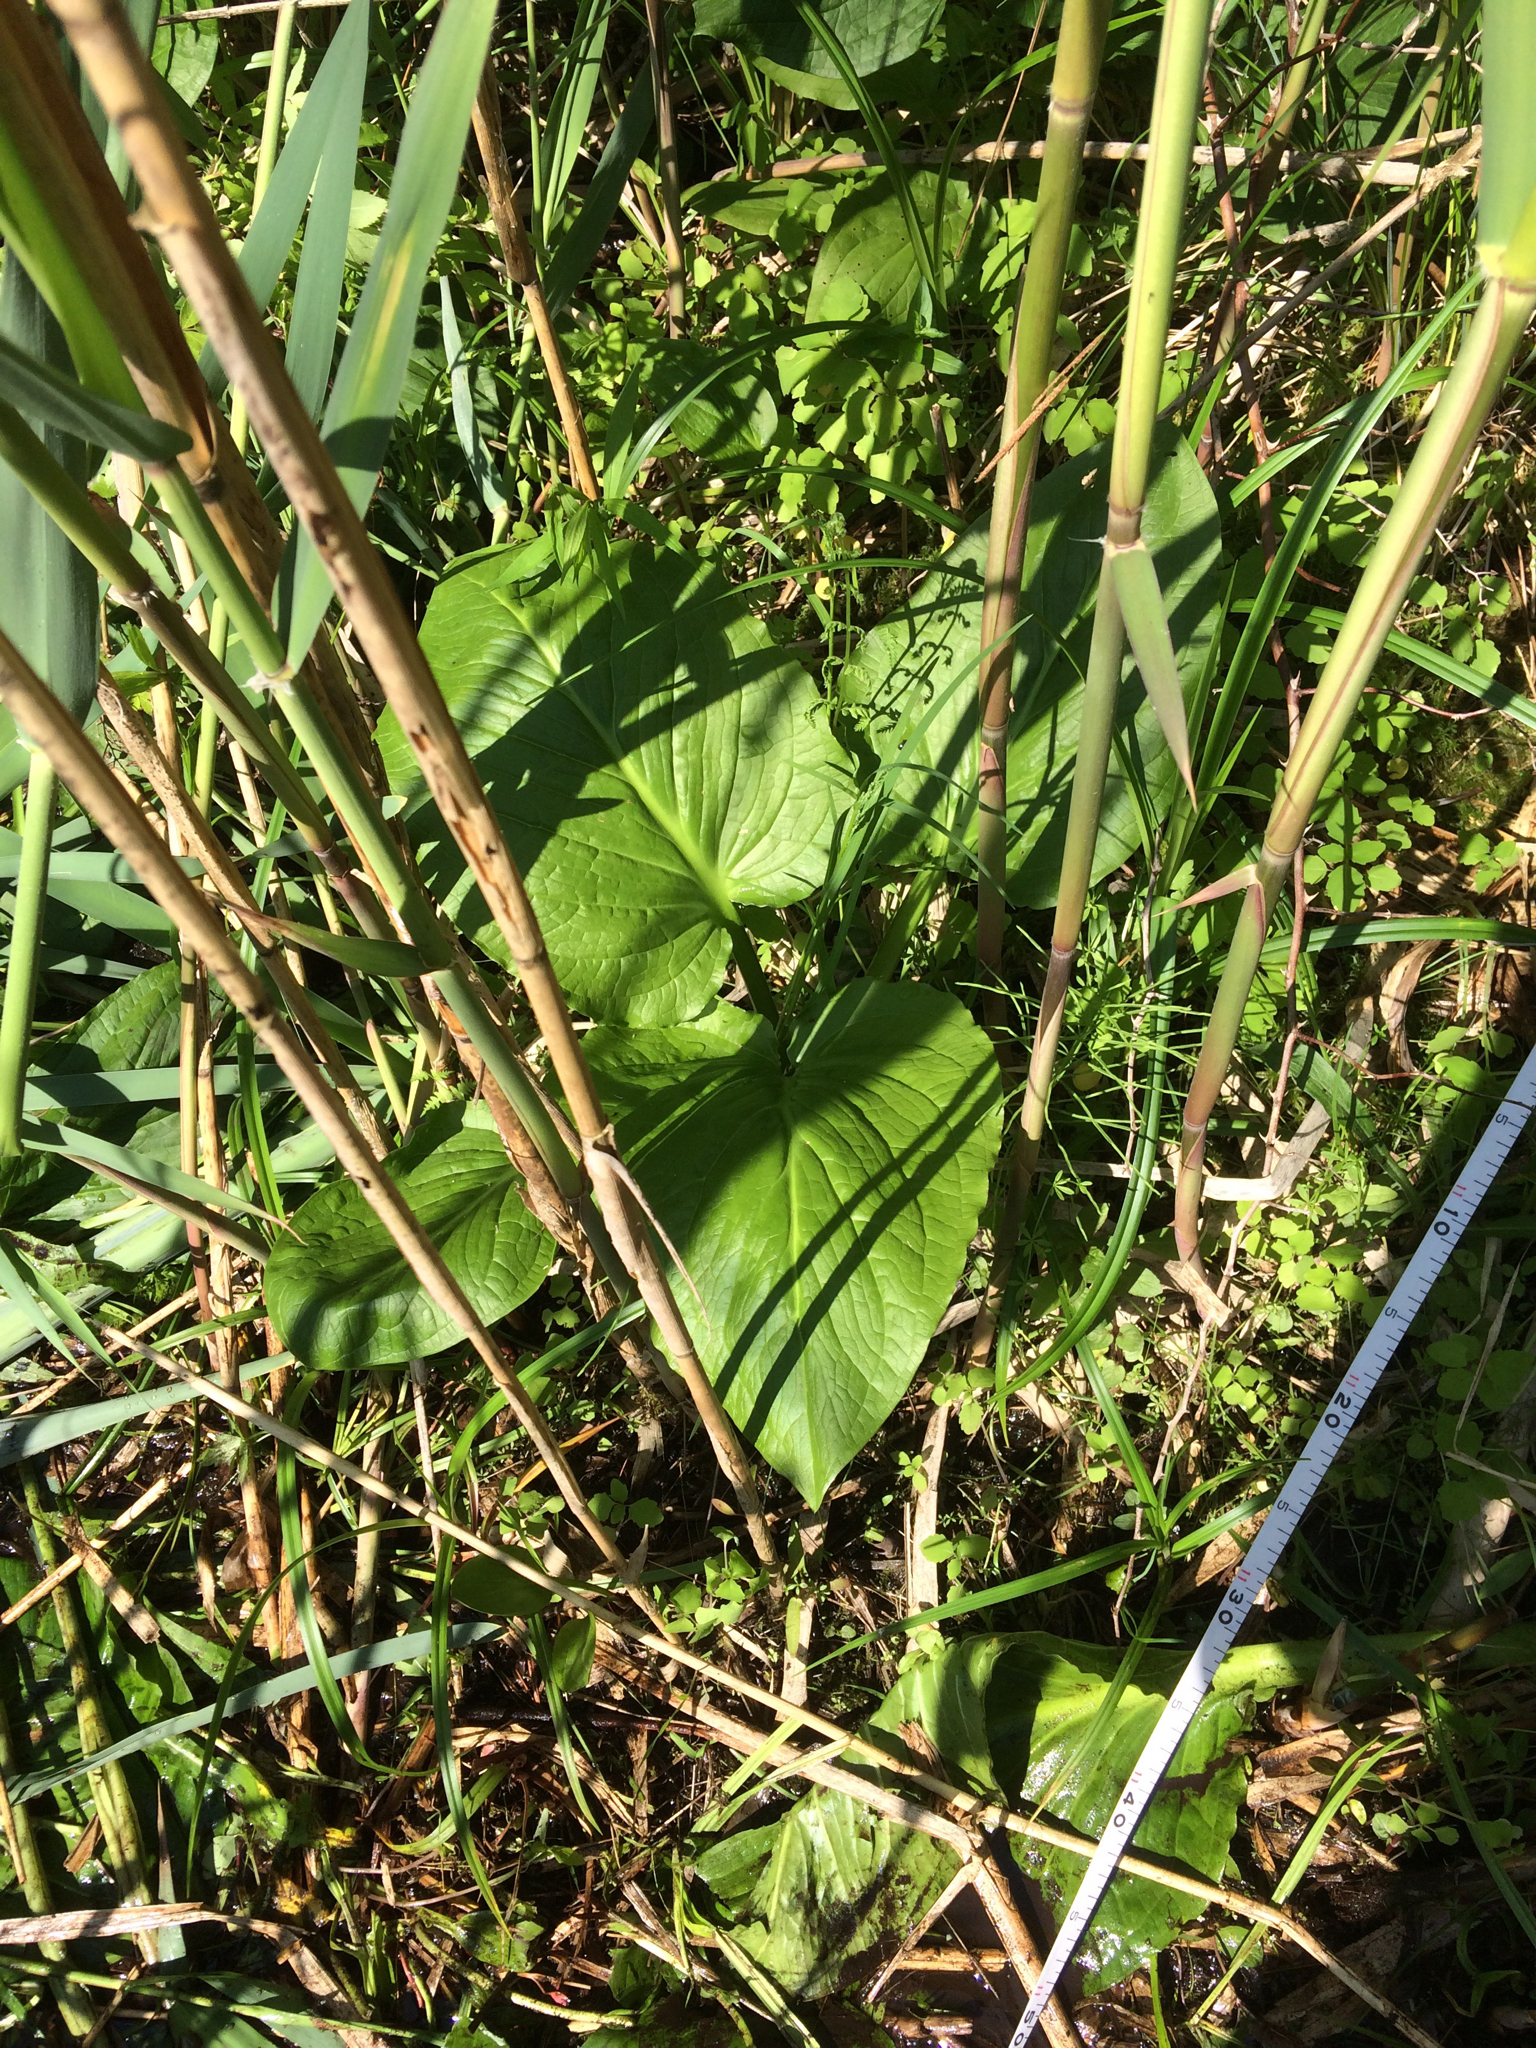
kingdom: Plantae
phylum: Tracheophyta
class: Liliopsida
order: Alismatales
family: Araceae
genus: Symplocarpus
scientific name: Symplocarpus foetidus
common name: Eastern skunk cabbage
